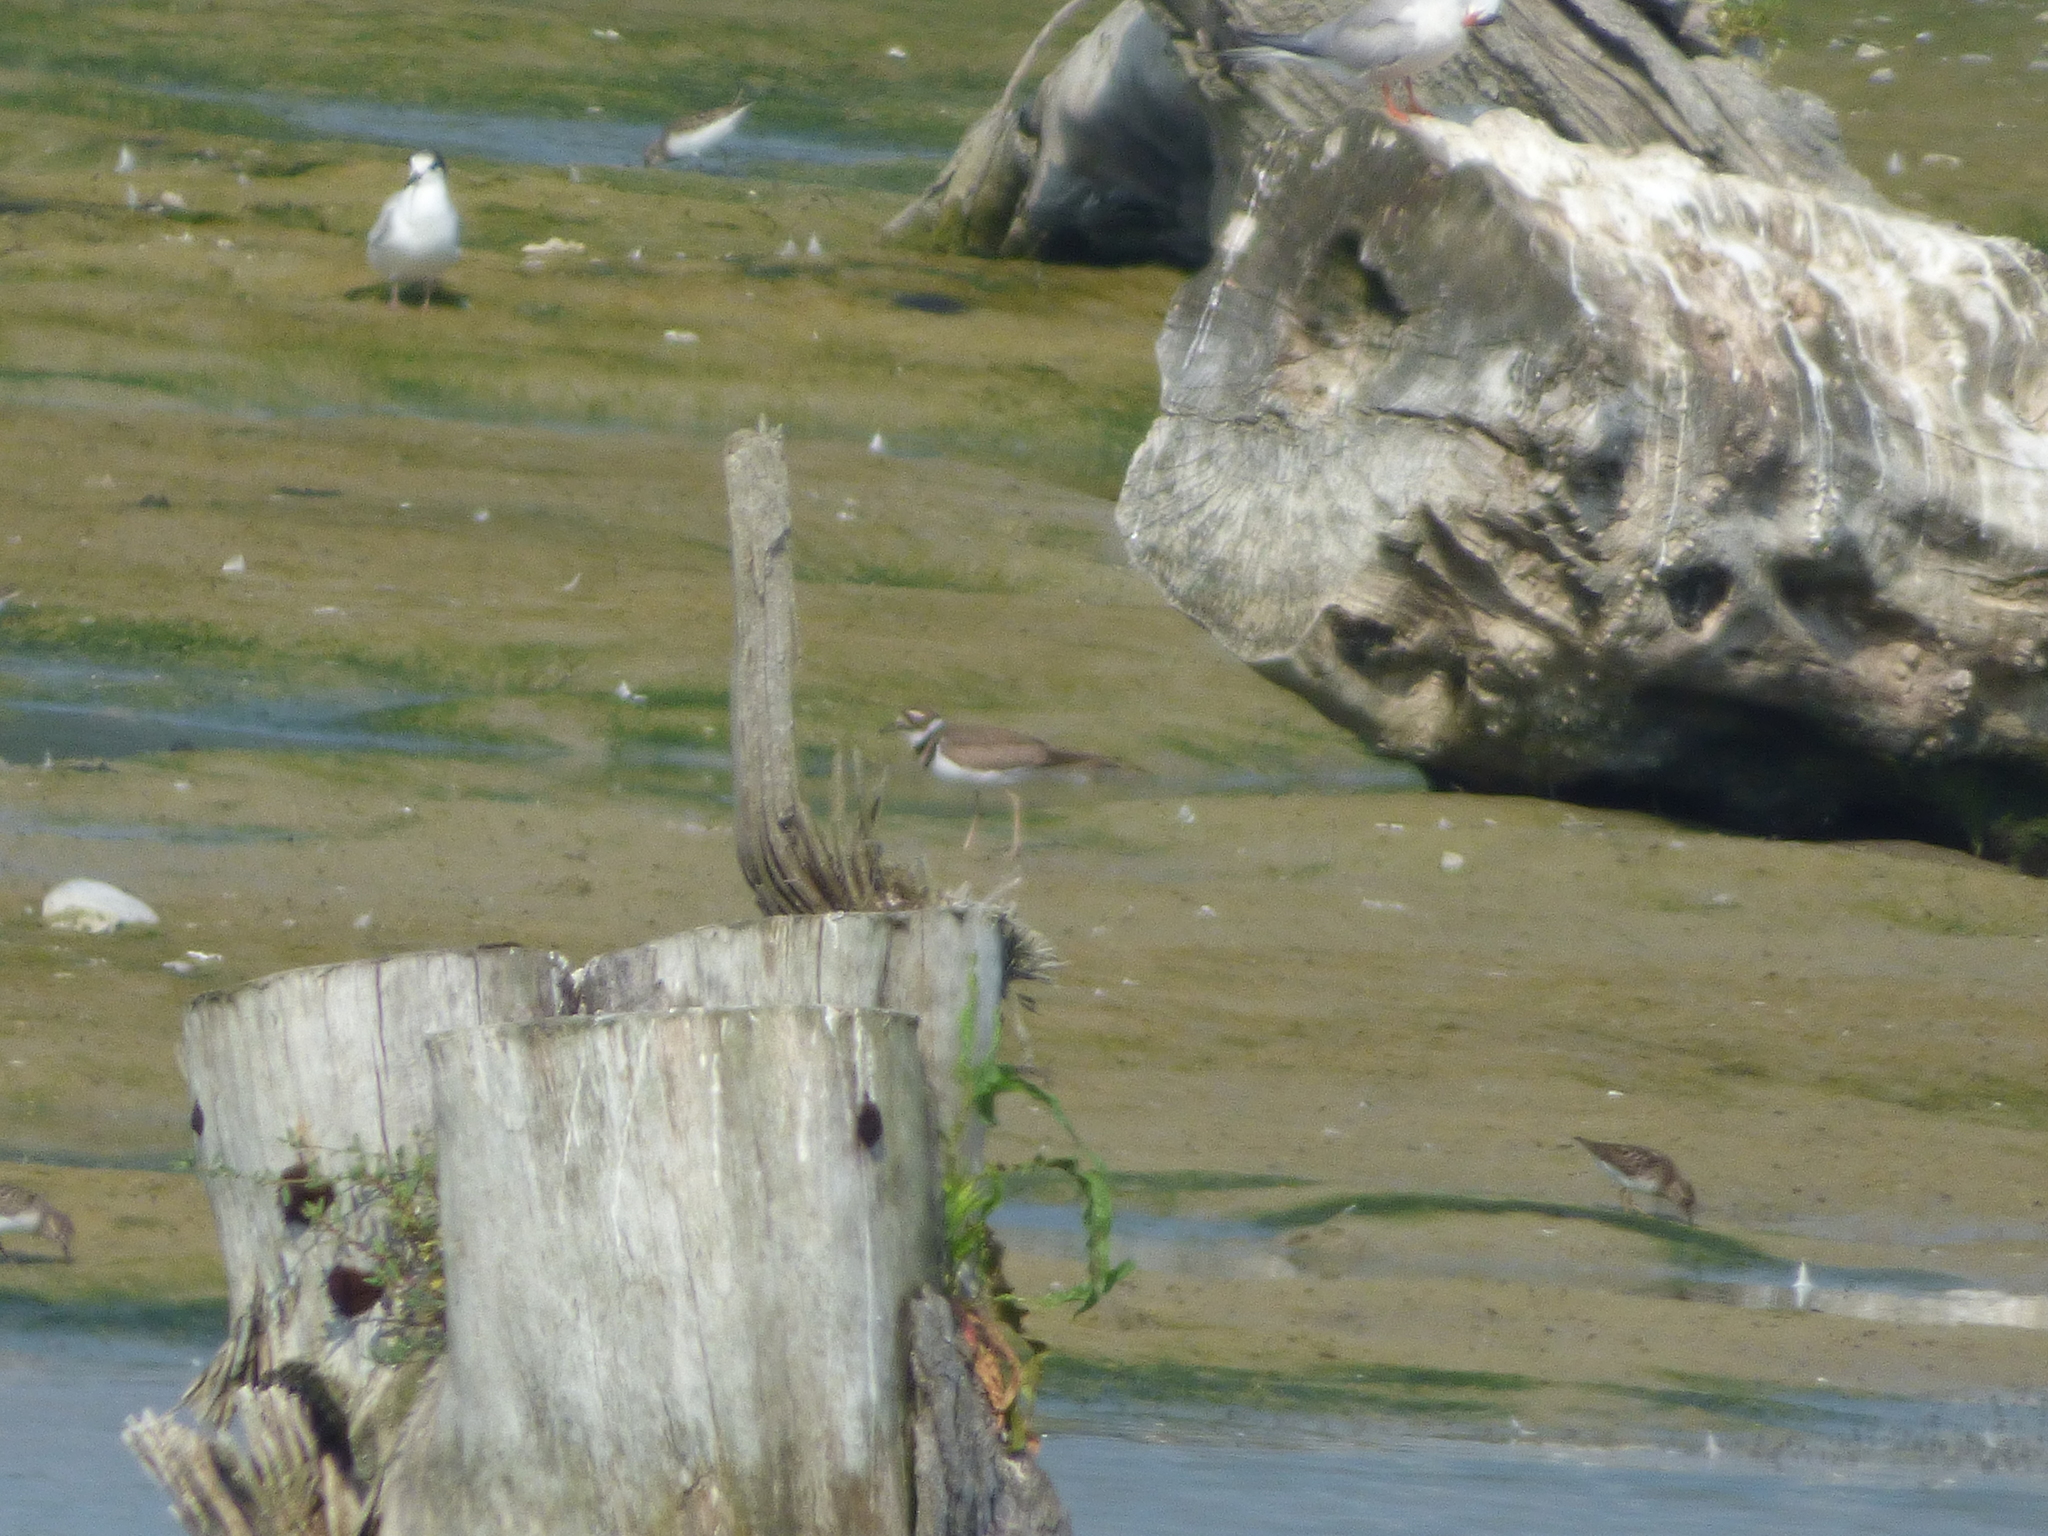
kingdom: Animalia
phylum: Chordata
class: Aves
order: Charadriiformes
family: Charadriidae
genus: Charadrius
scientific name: Charadrius vociferus
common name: Killdeer
